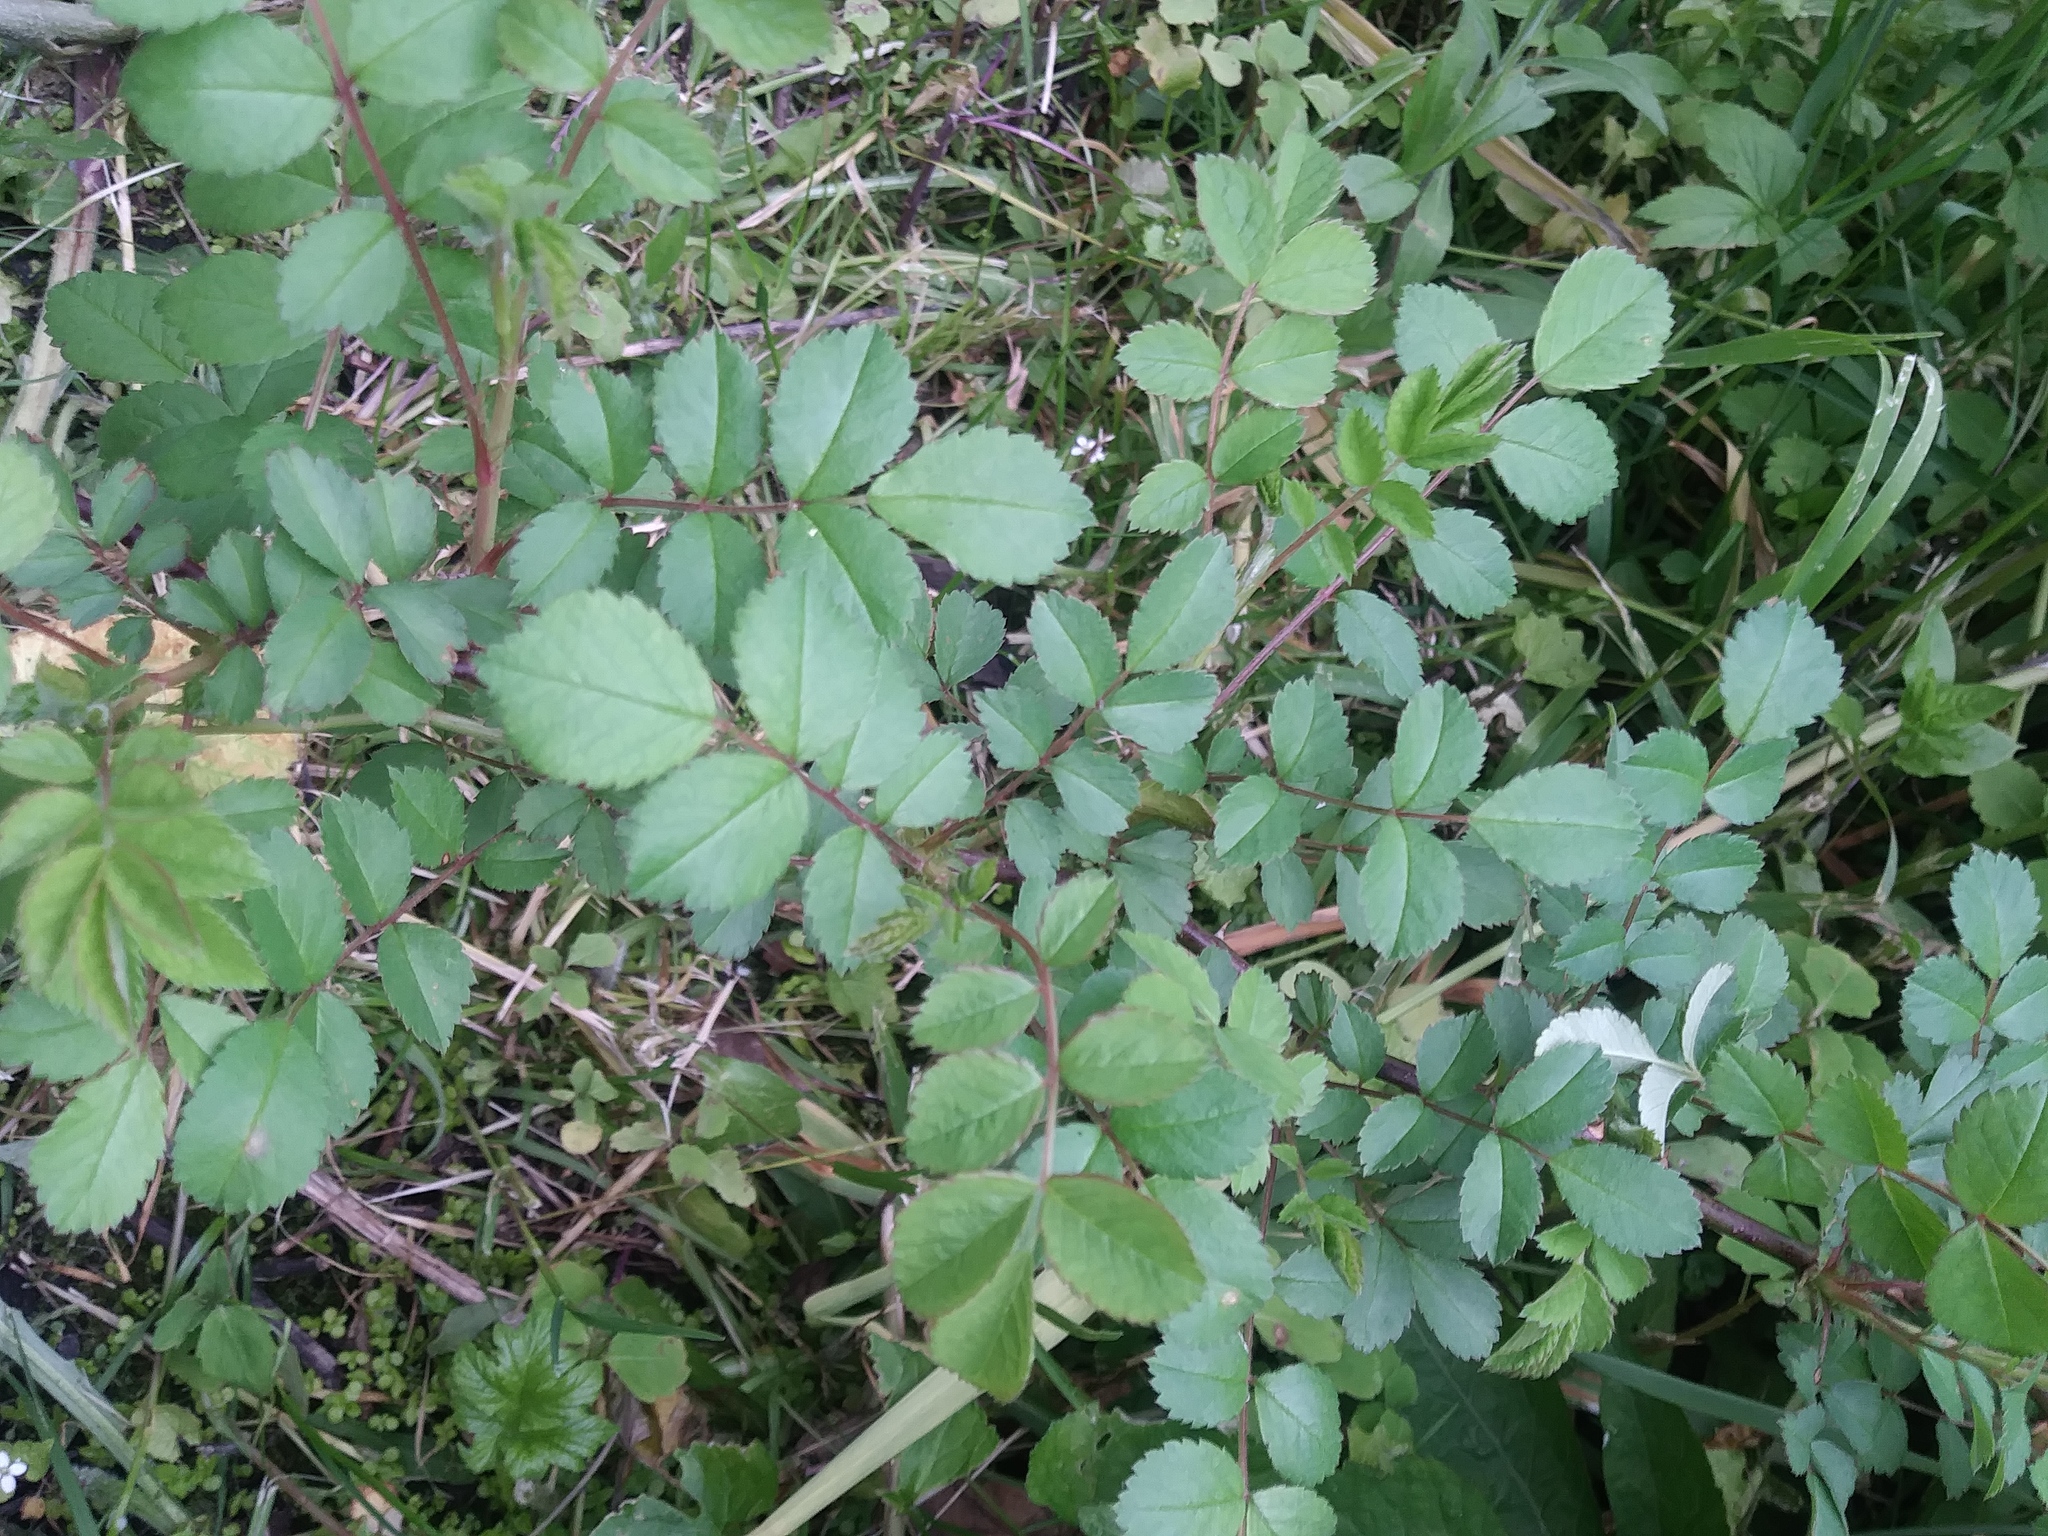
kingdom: Plantae
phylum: Tracheophyta
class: Magnoliopsida
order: Rosales
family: Rosaceae
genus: Rosa
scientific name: Rosa multiflora
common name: Multiflora rose
